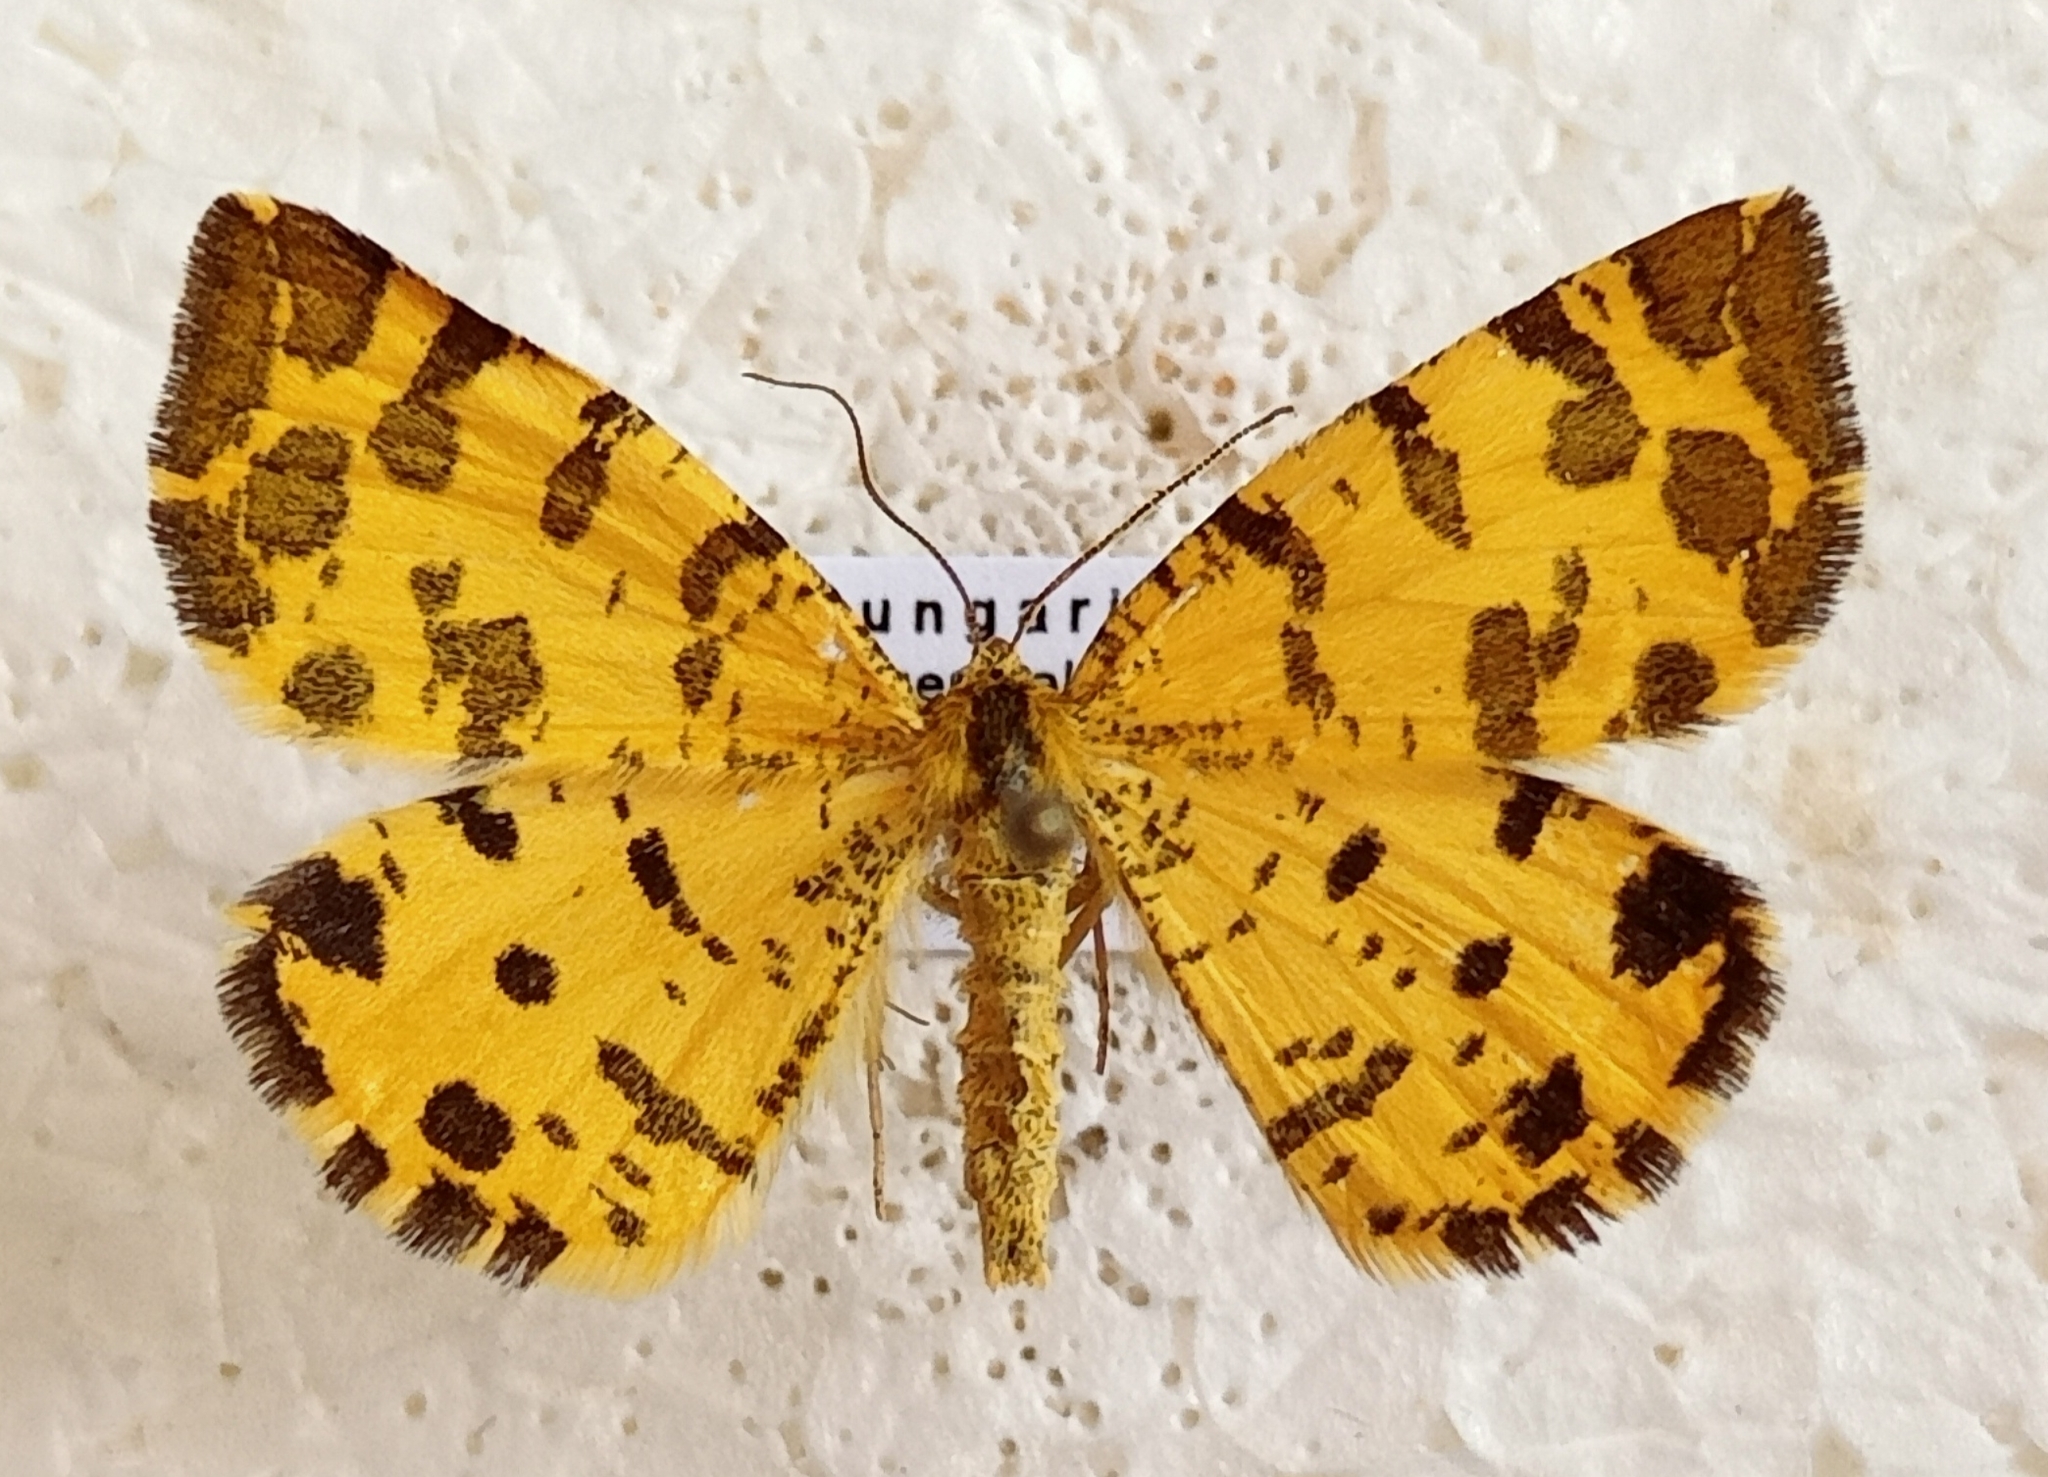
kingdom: Animalia
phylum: Arthropoda
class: Insecta
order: Lepidoptera
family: Geometridae
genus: Pseudopanthera
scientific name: Pseudopanthera macularia
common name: Speckled yellow
